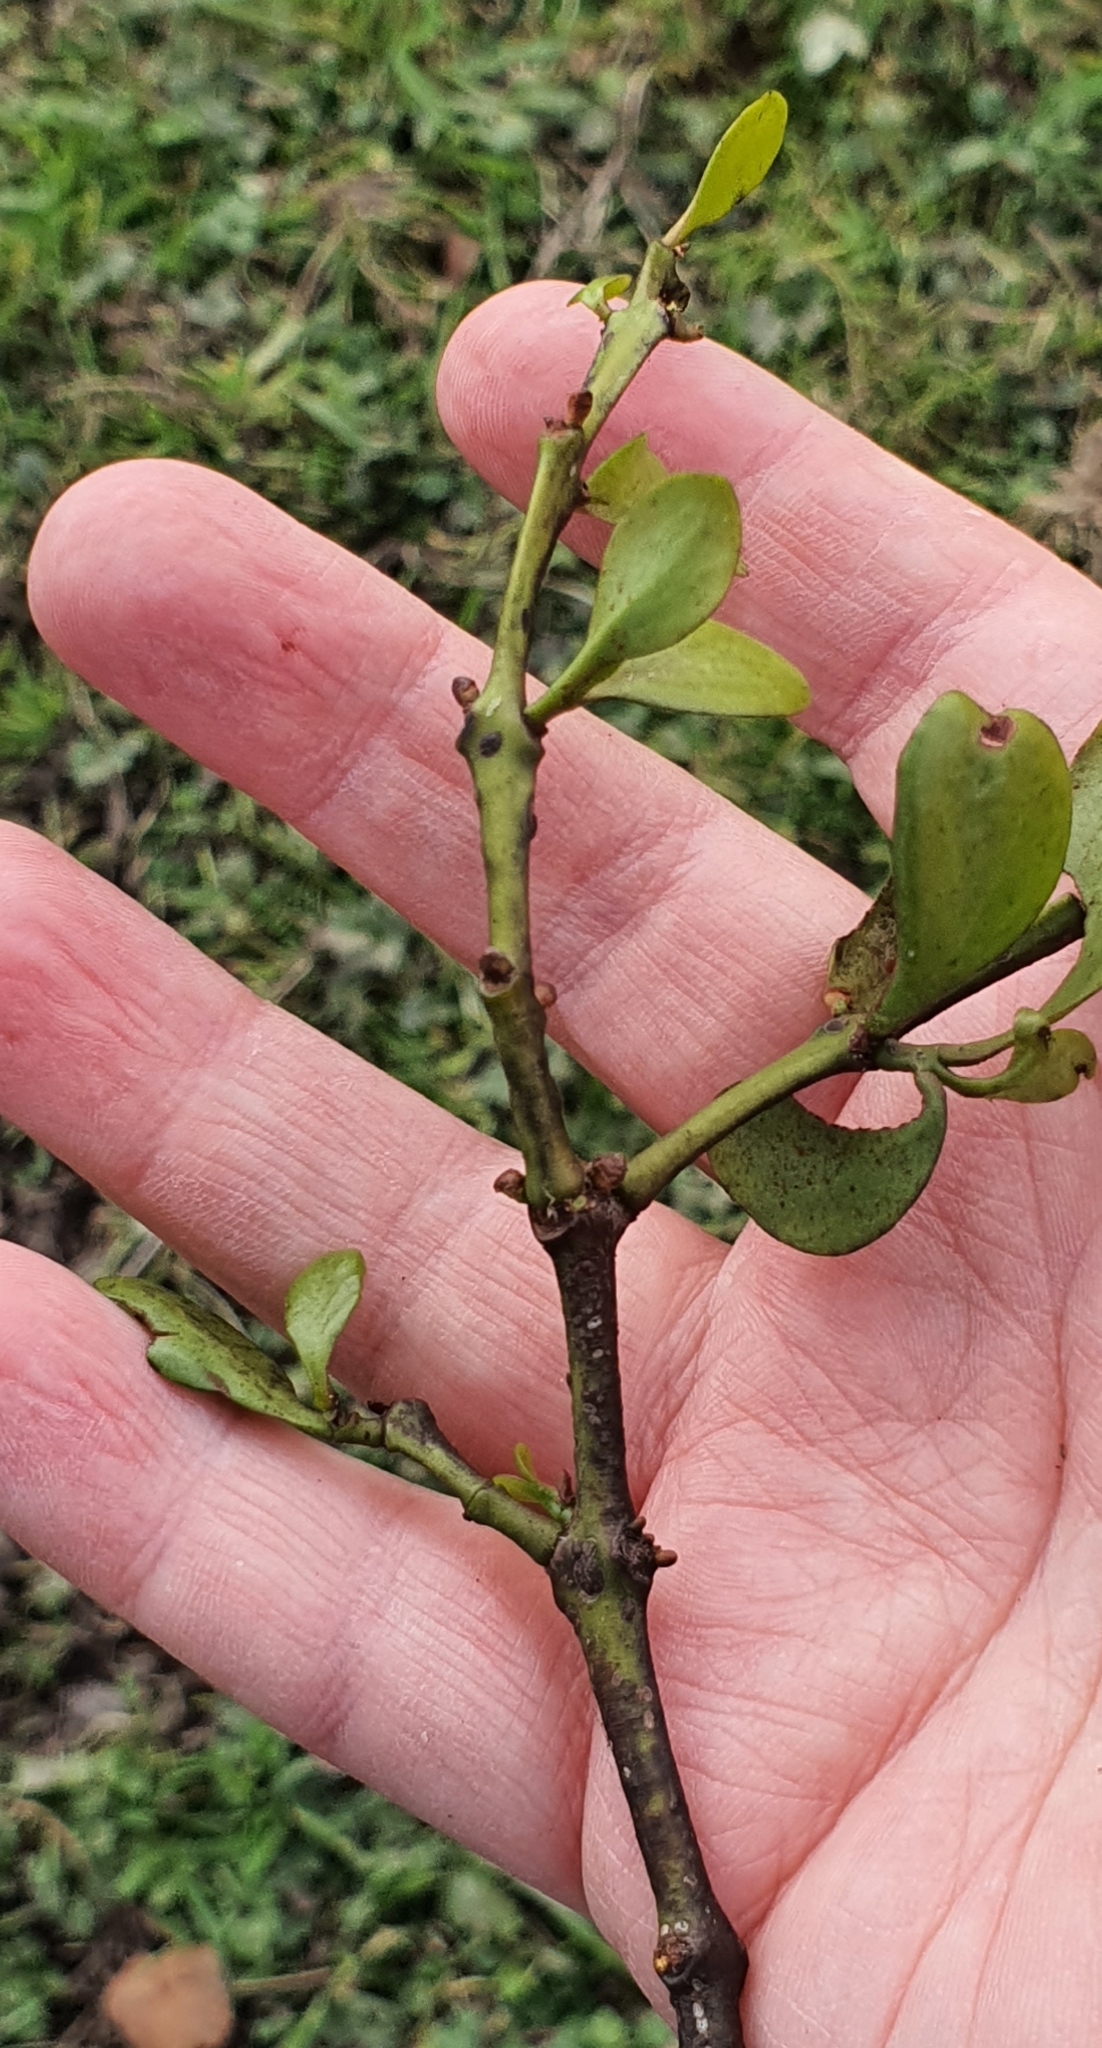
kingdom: Plantae
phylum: Tracheophyta
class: Magnoliopsida
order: Santalales
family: Loranthaceae
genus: Ileostylus
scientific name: Ileostylus micranthus
